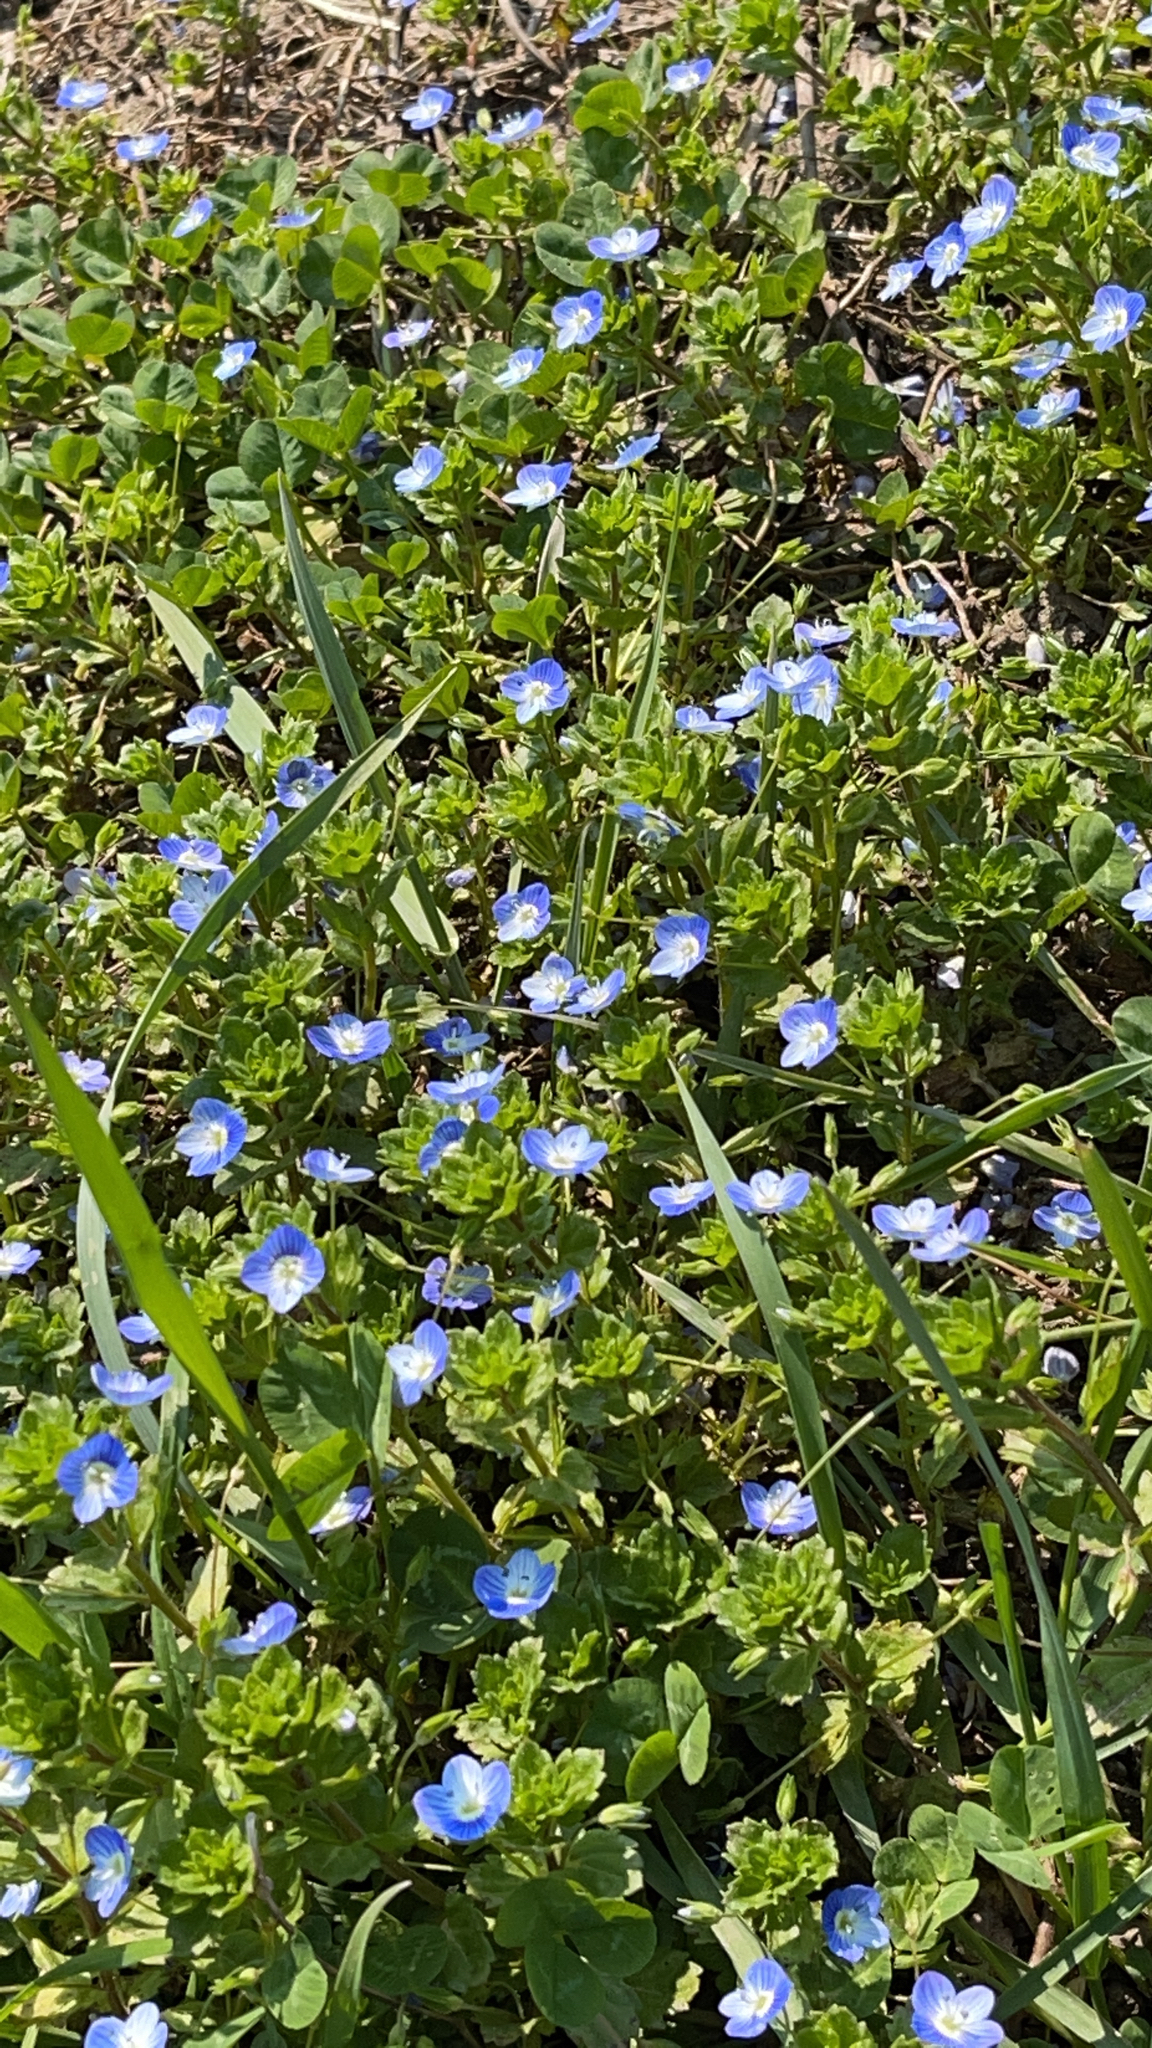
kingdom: Plantae
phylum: Tracheophyta
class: Magnoliopsida
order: Lamiales
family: Plantaginaceae
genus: Veronica
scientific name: Veronica persica
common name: Common field-speedwell
